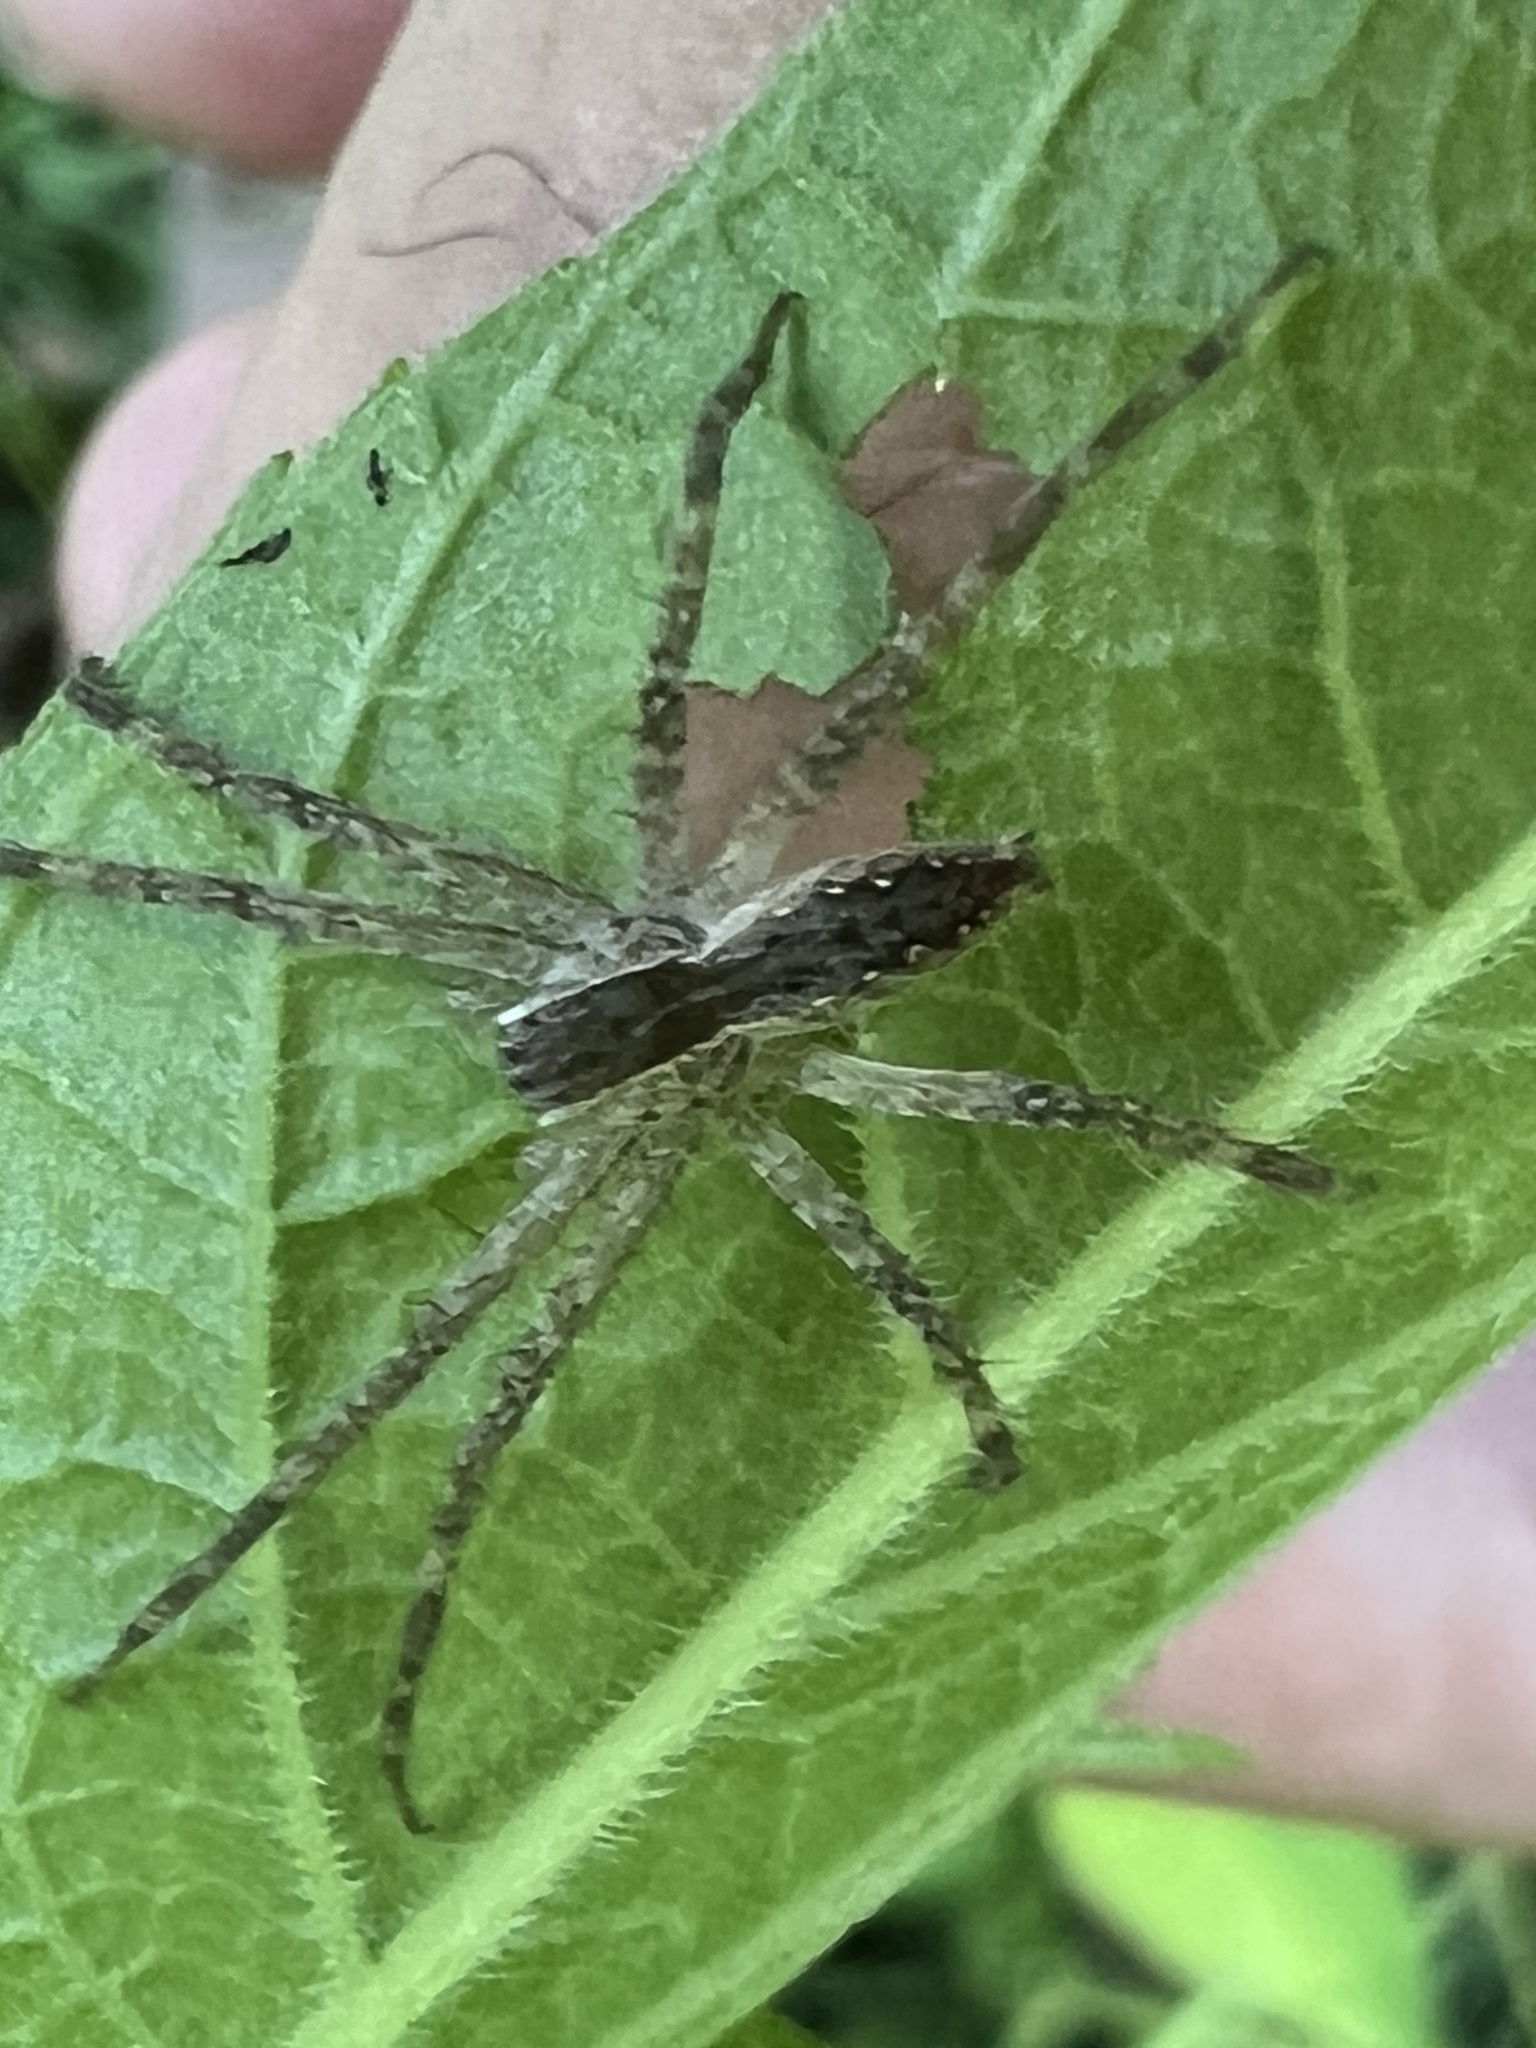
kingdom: Animalia
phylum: Arthropoda
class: Arachnida
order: Araneae
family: Pisauridae
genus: Pisaurina
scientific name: Pisaurina mira
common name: American nursery web spider
